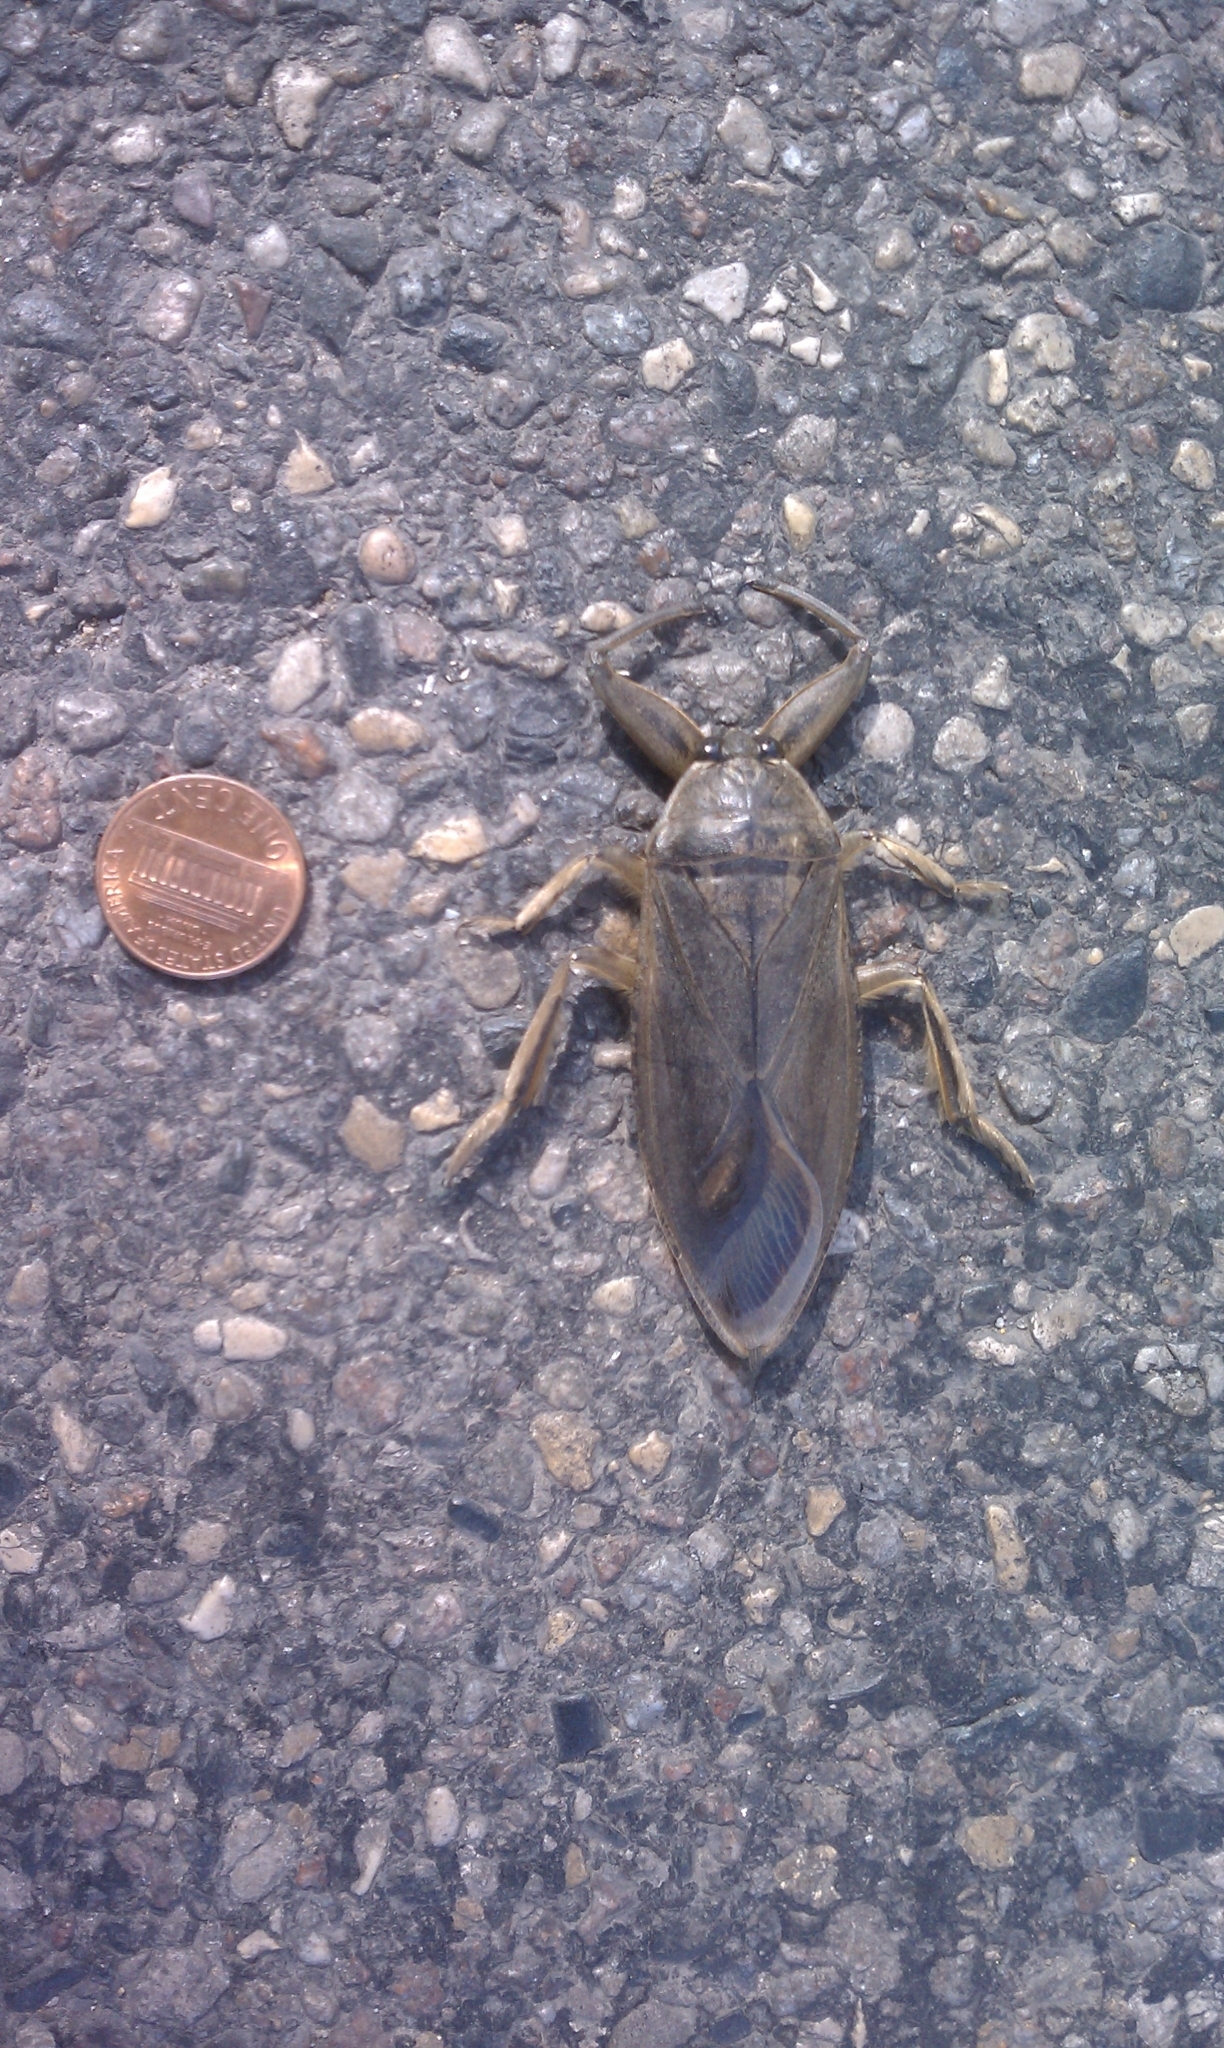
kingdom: Animalia
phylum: Arthropoda
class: Insecta
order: Hemiptera
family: Belostomatidae
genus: Lethocerus
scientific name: Lethocerus americanus
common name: Giant water bug
